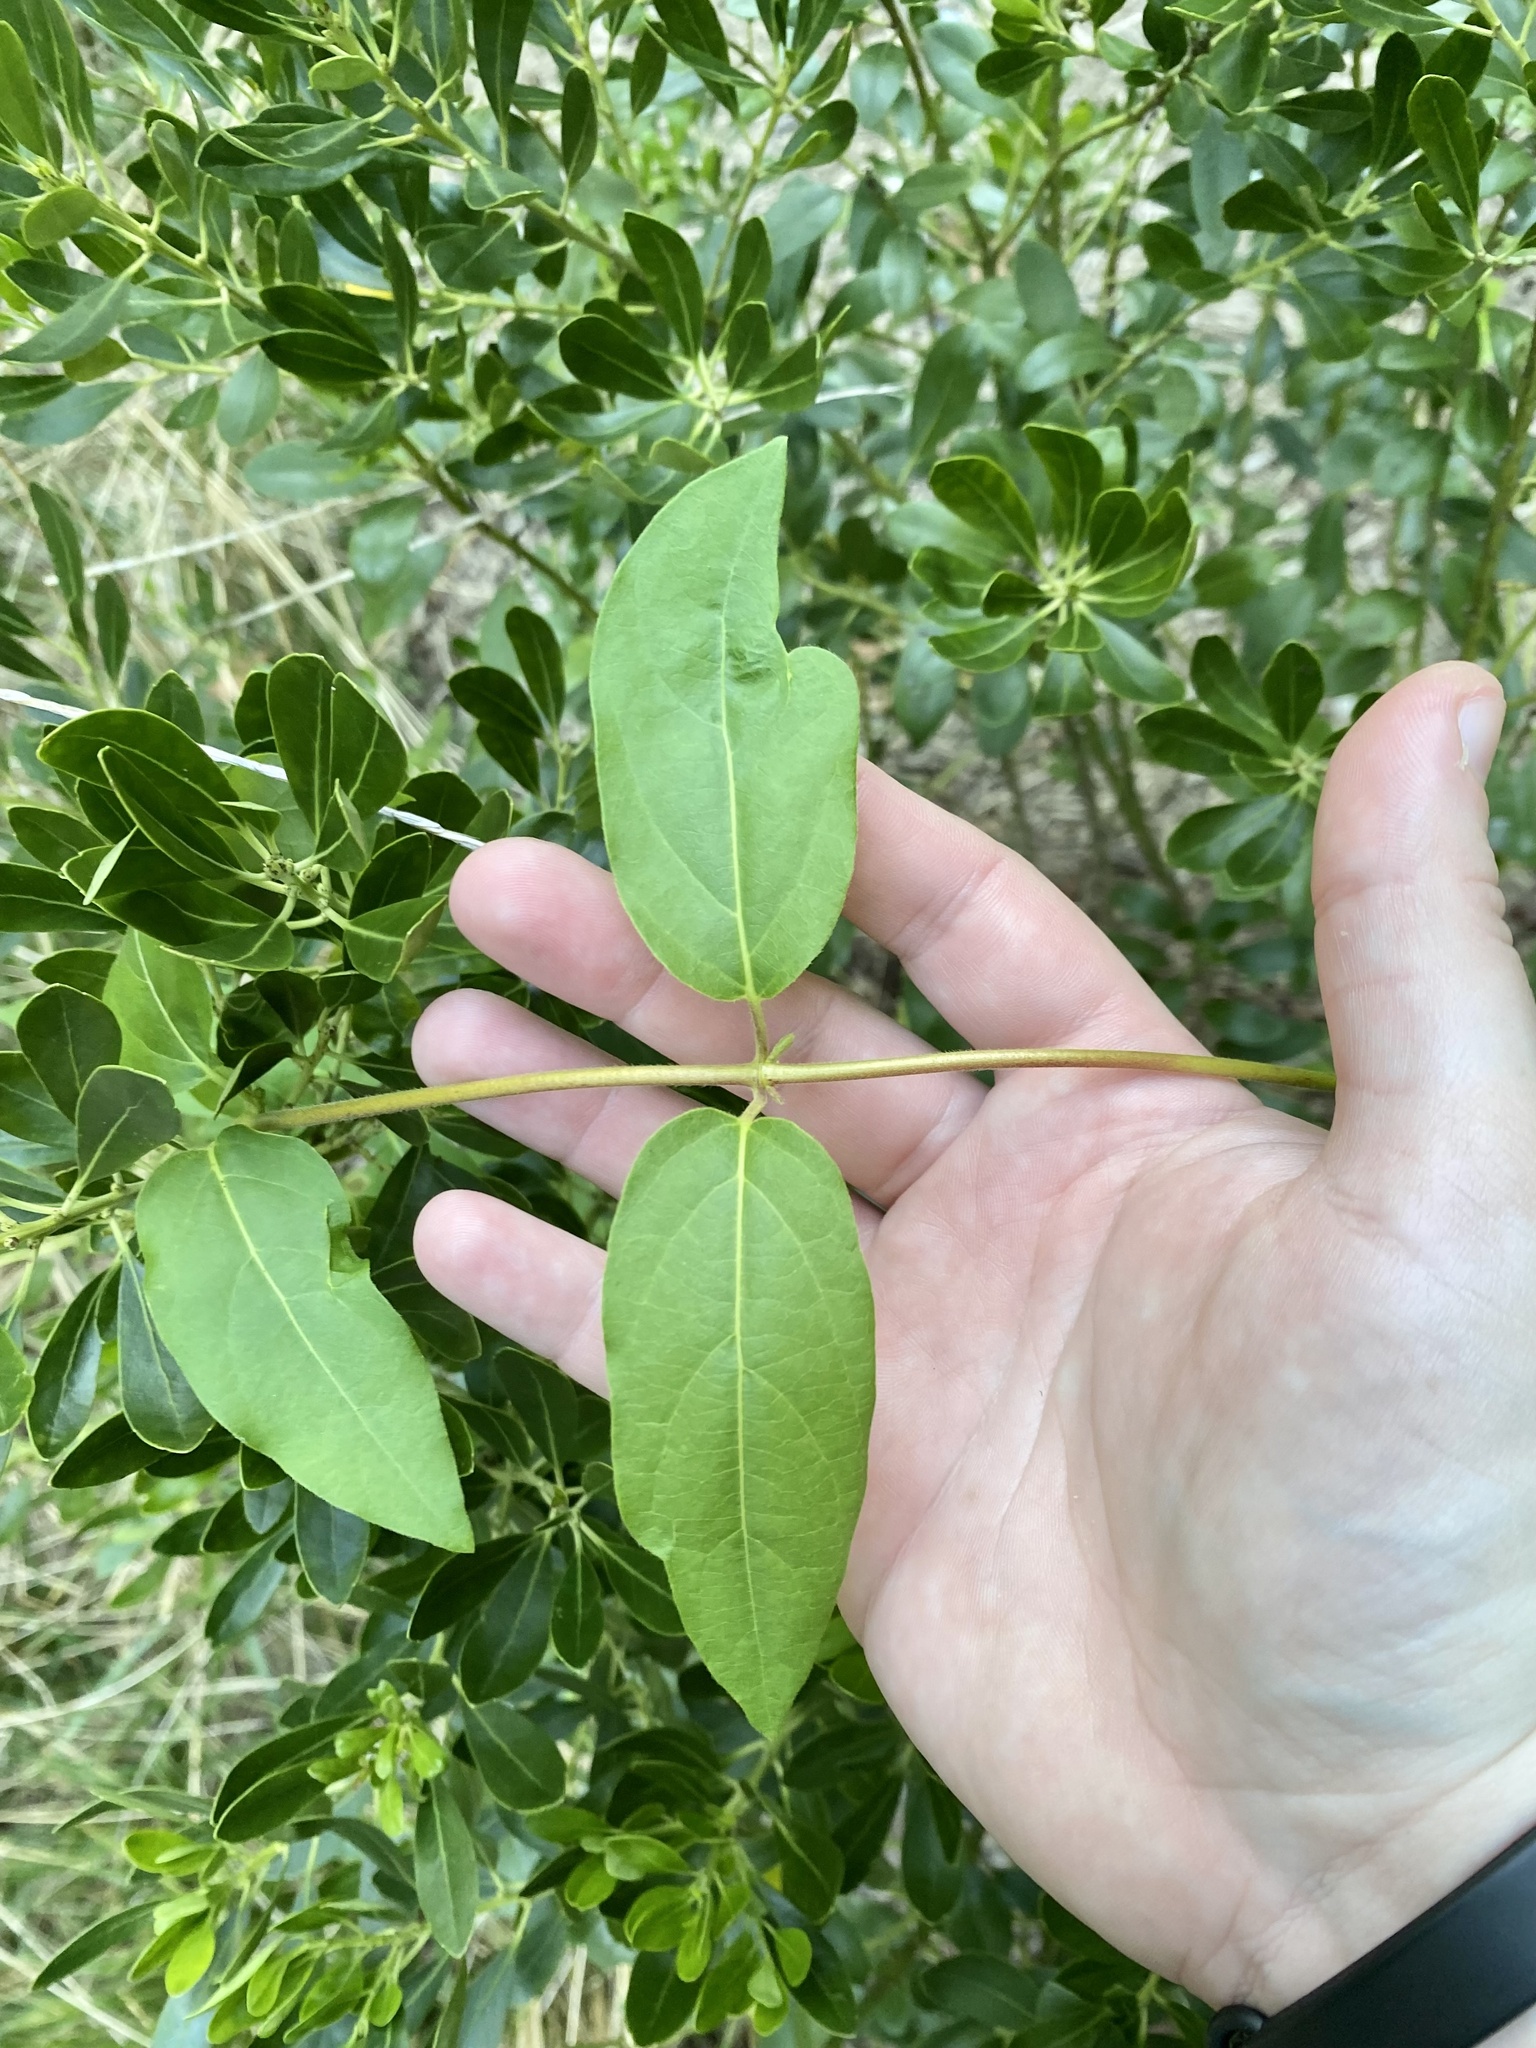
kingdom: Plantae
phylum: Tracheophyta
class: Magnoliopsida
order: Dipsacales
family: Caprifoliaceae
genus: Lonicera
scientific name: Lonicera japonica
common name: Japanese honeysuckle
